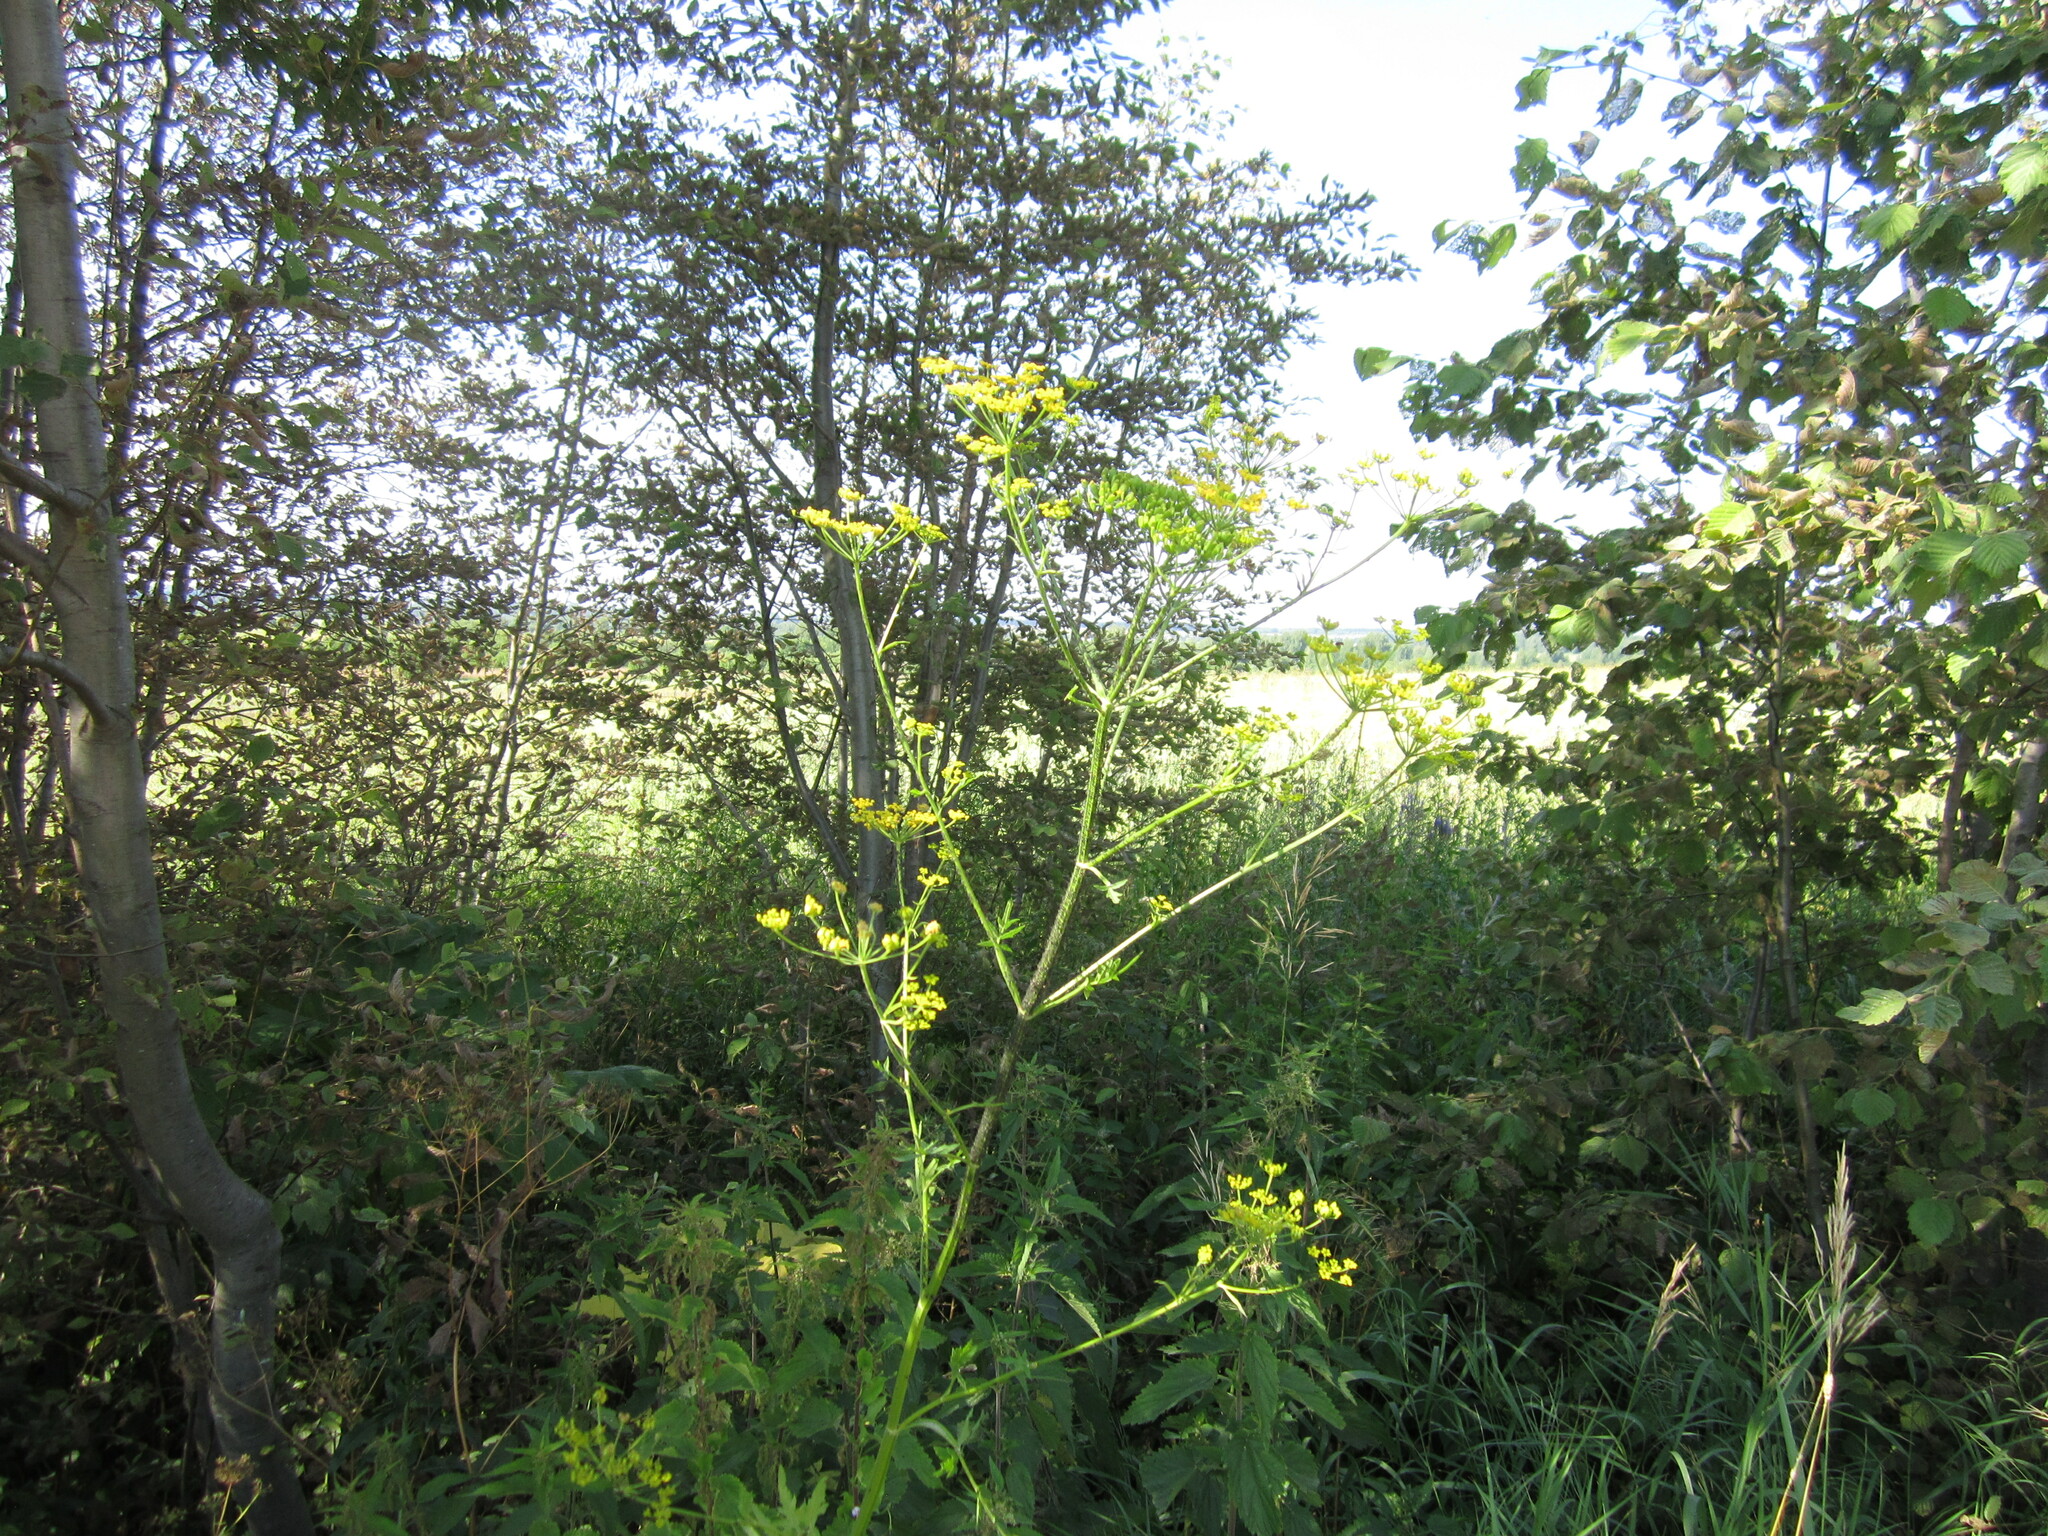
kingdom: Plantae
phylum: Tracheophyta
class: Magnoliopsida
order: Apiales
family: Apiaceae
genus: Pastinaca
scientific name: Pastinaca sativa
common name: Wild parsnip
